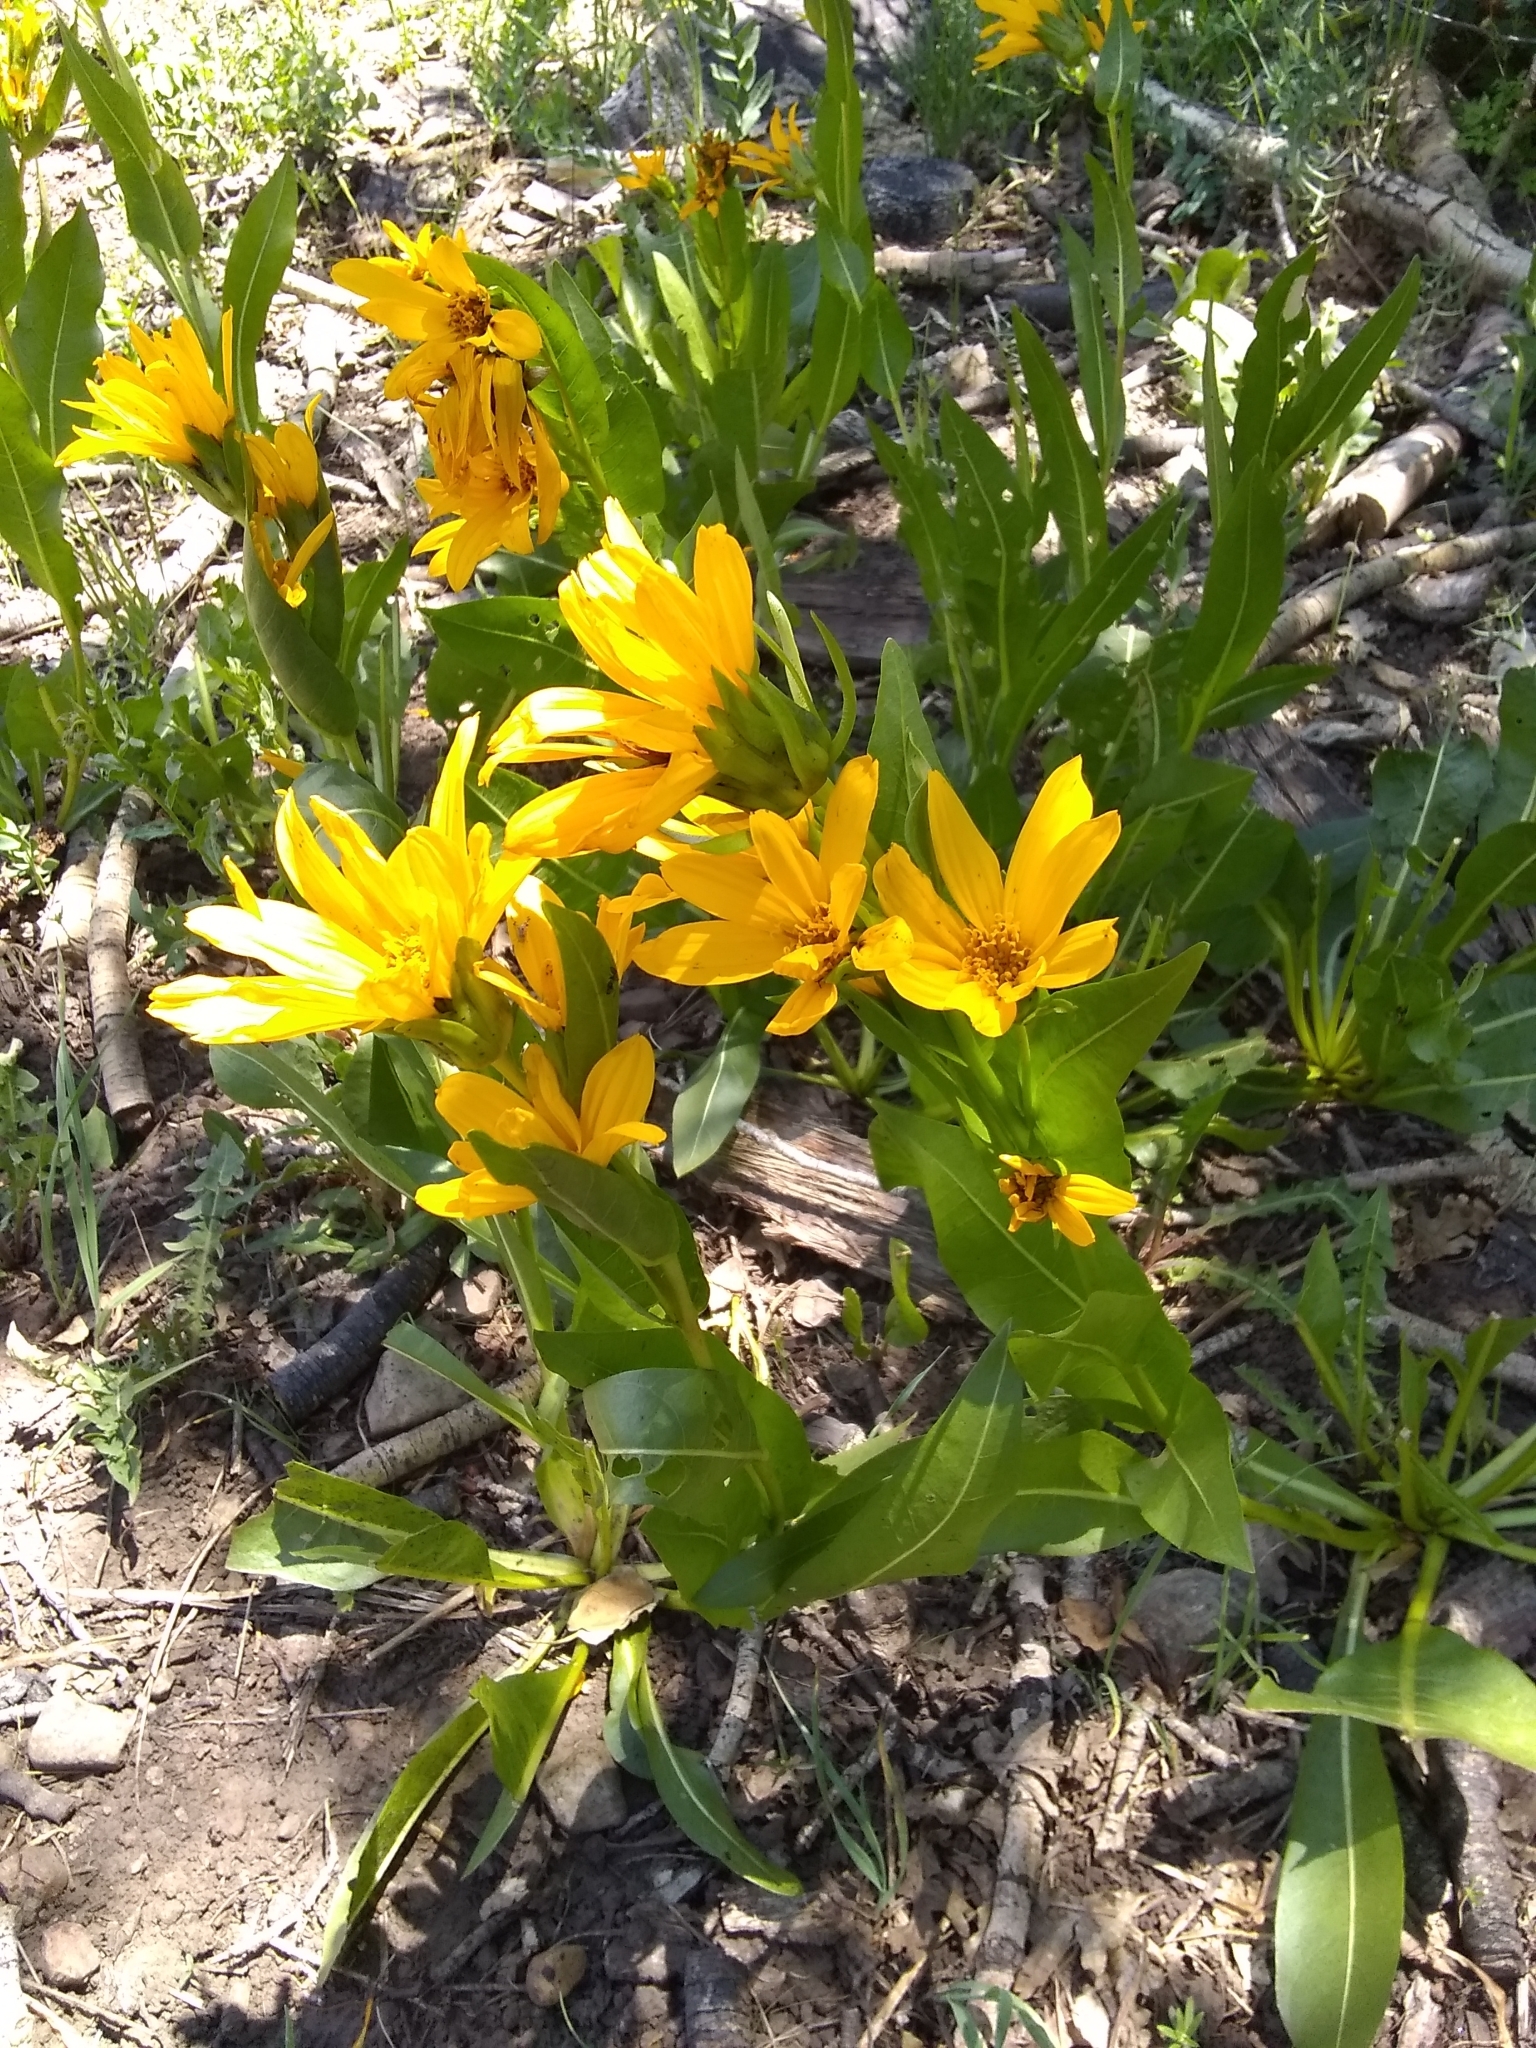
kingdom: Plantae
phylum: Tracheophyta
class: Magnoliopsida
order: Asterales
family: Asteraceae
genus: Wyethia
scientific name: Wyethia amplexicaulis
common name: Northern mule's-ears
